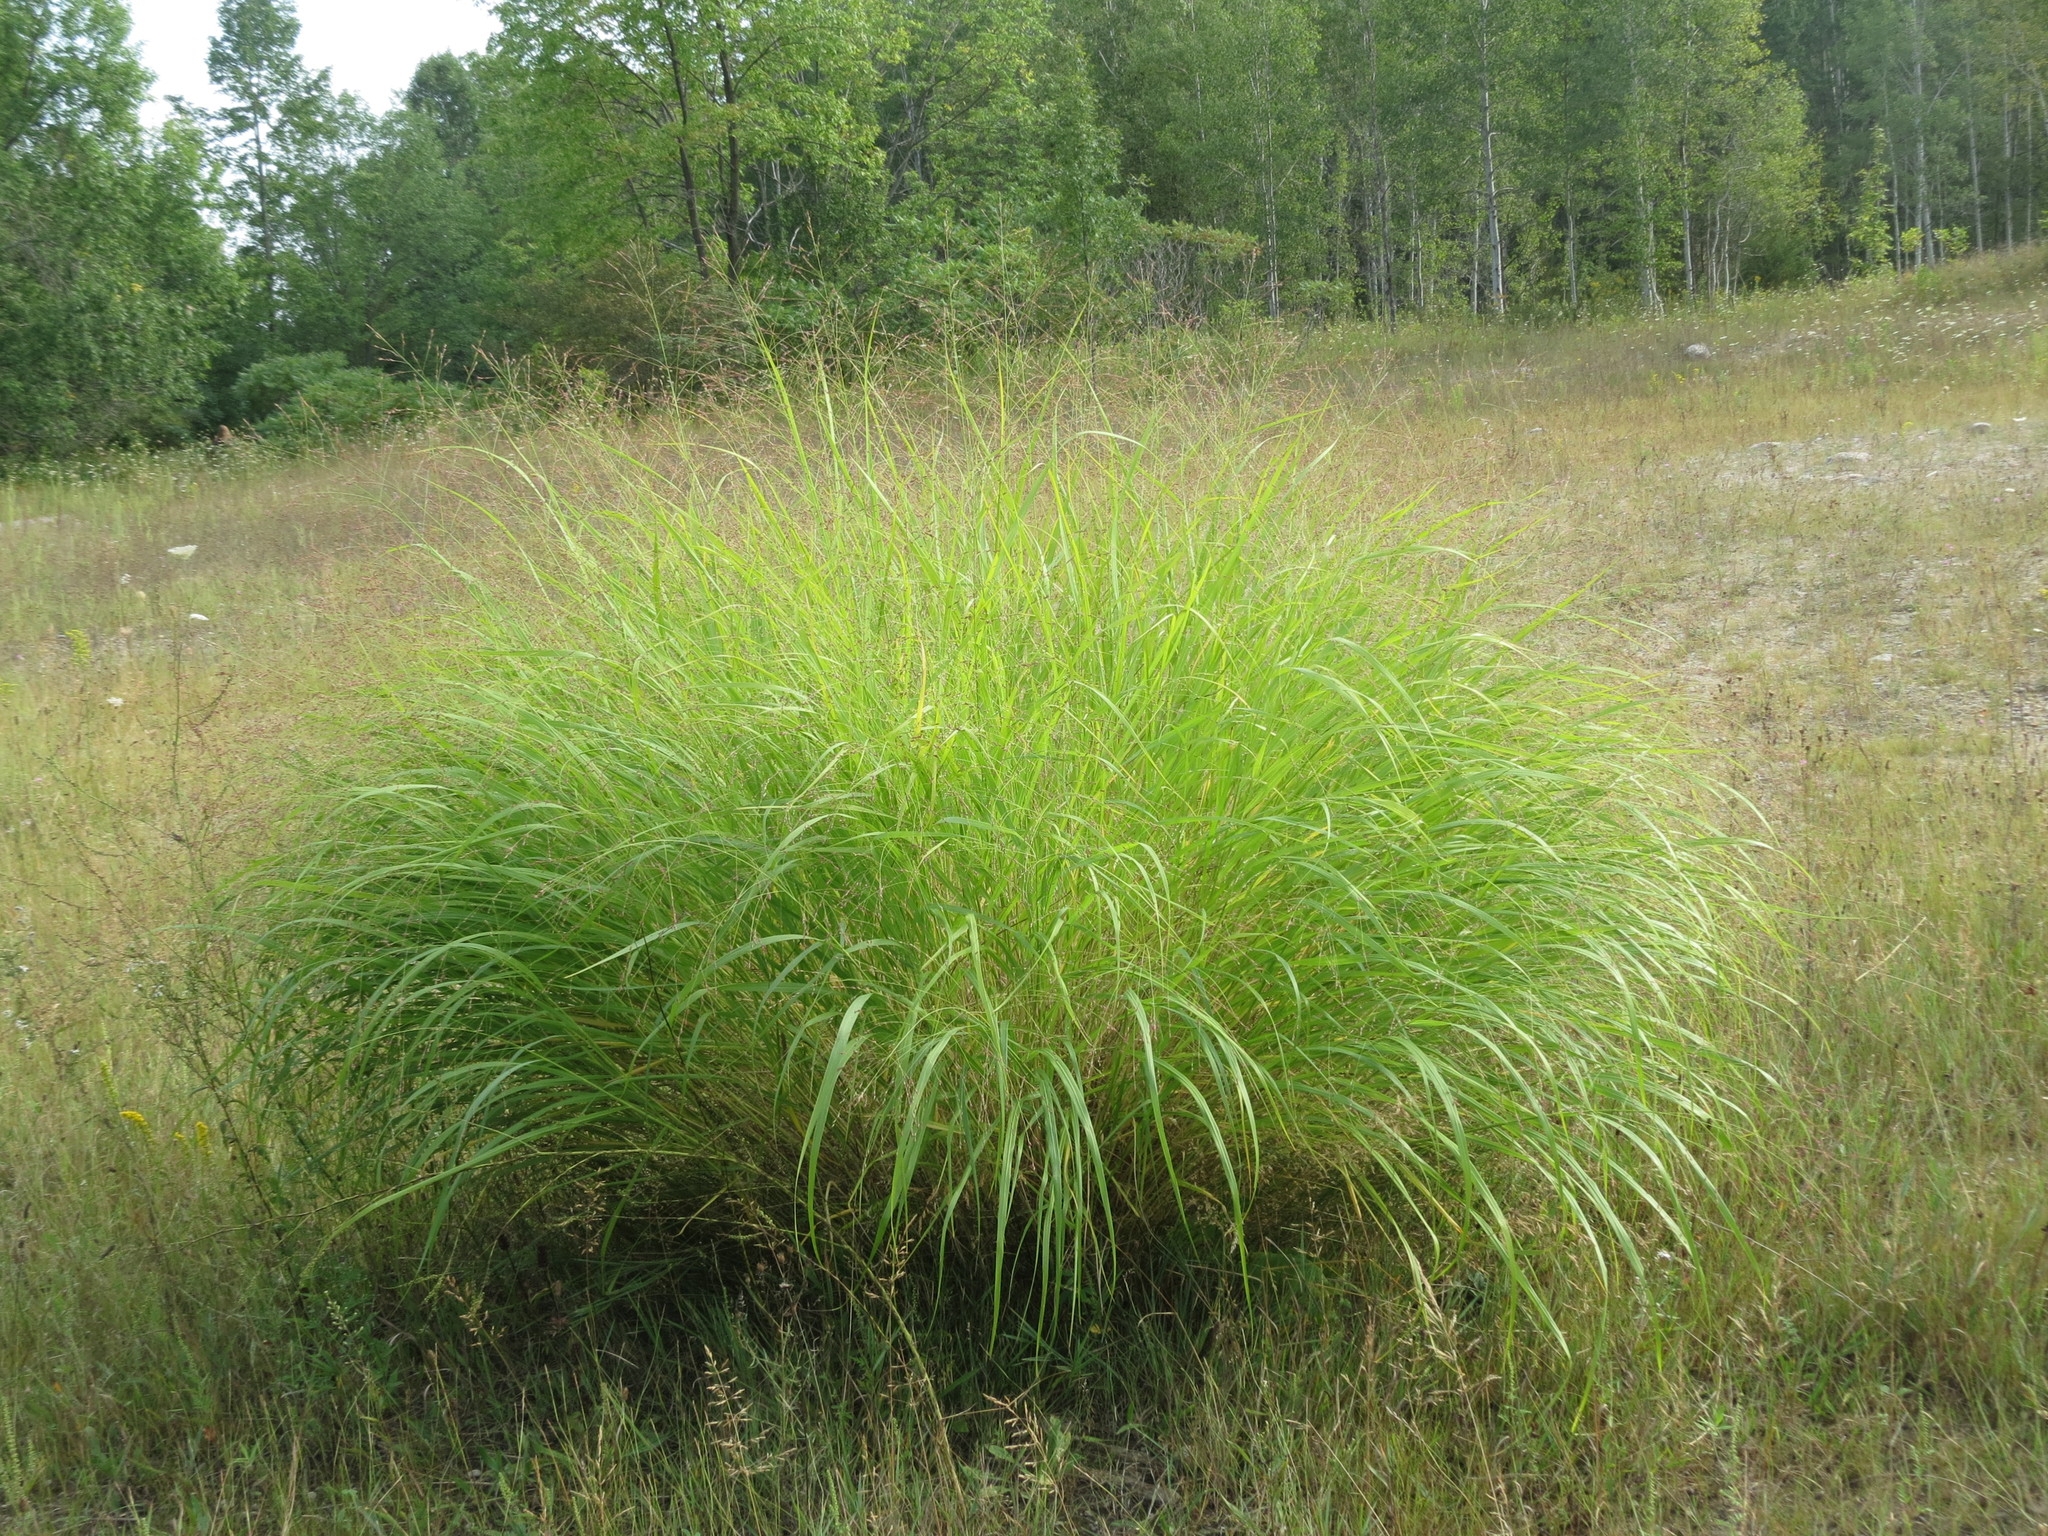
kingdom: Plantae
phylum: Tracheophyta
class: Liliopsida
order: Poales
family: Poaceae
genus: Panicum
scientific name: Panicum virgatum
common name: Switchgrass
